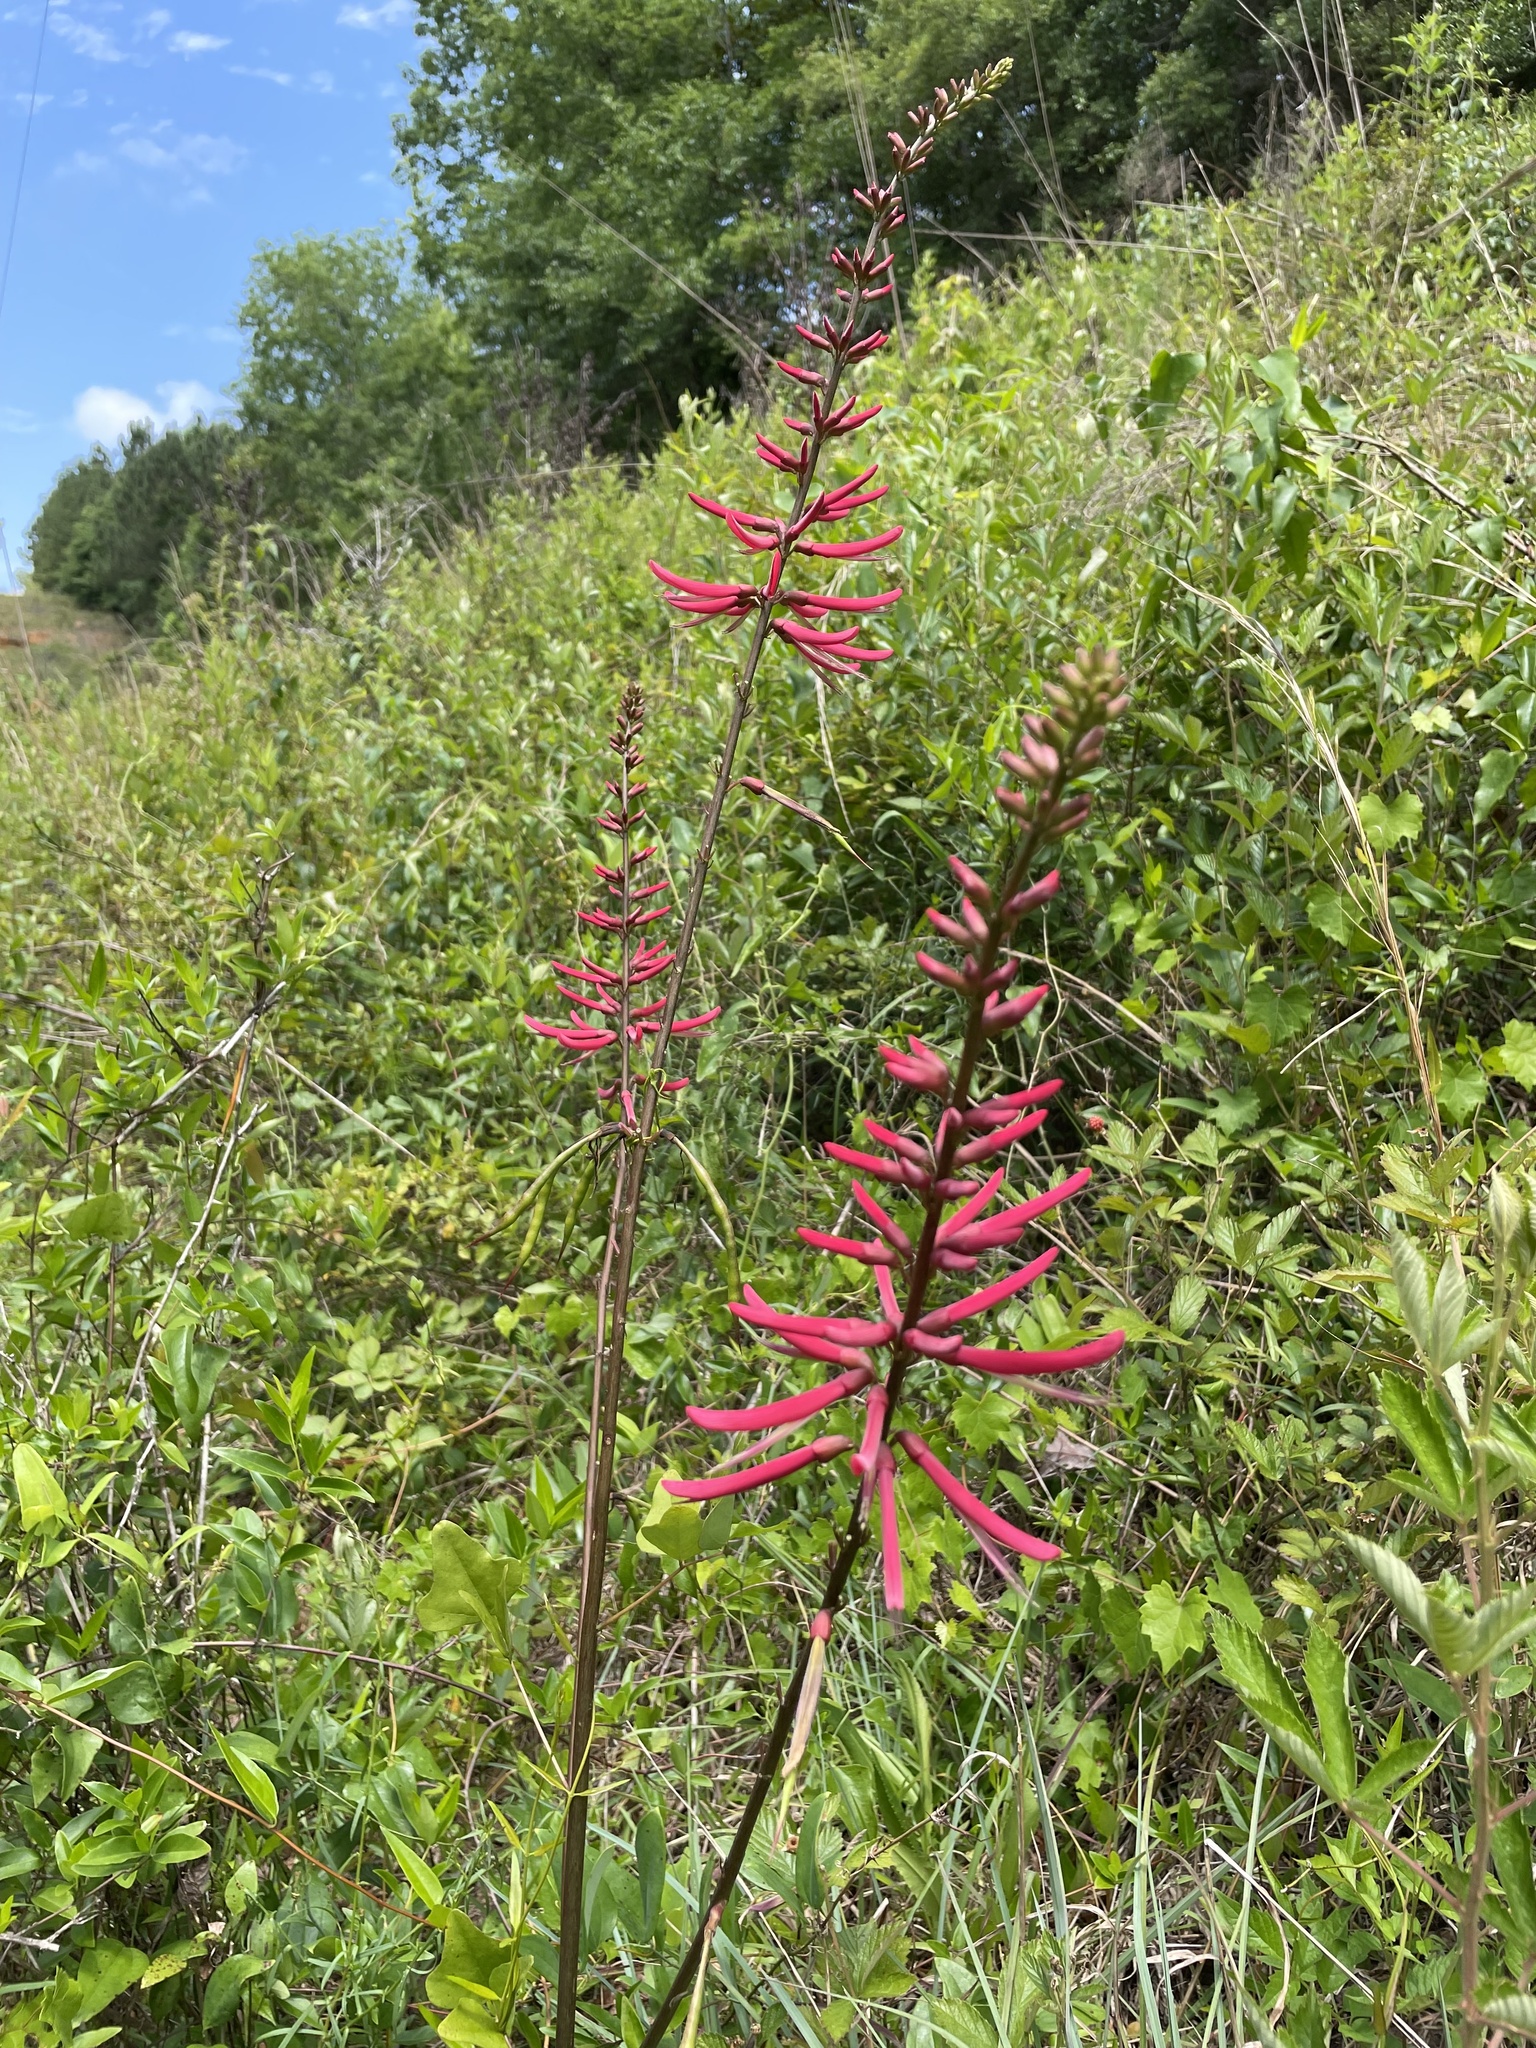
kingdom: Plantae
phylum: Tracheophyta
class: Magnoliopsida
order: Fabales
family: Fabaceae
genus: Erythrina
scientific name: Erythrina herbacea
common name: Coral-bean
